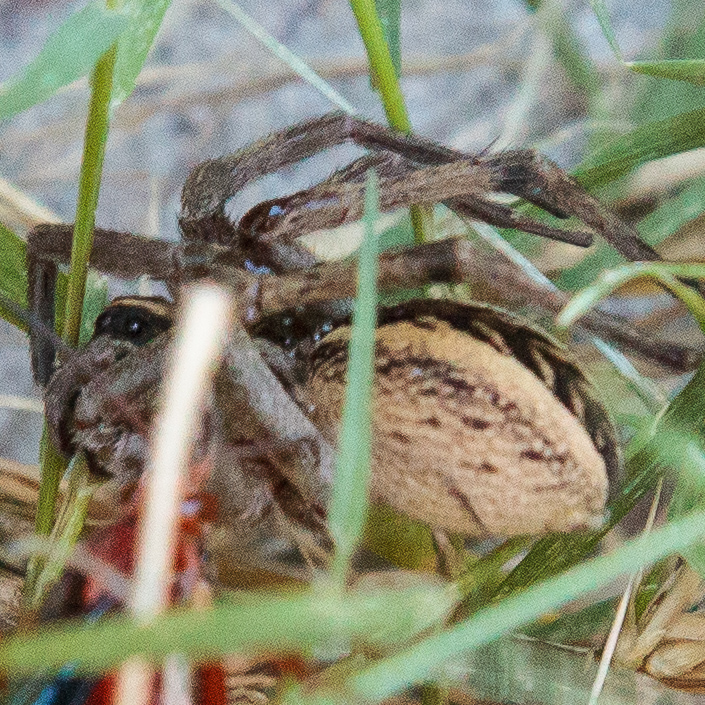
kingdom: Animalia
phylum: Arthropoda
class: Arachnida
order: Araneae
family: Lycosidae
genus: Rabidosa
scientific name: Rabidosa rabida
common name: Rabid wolf spider
